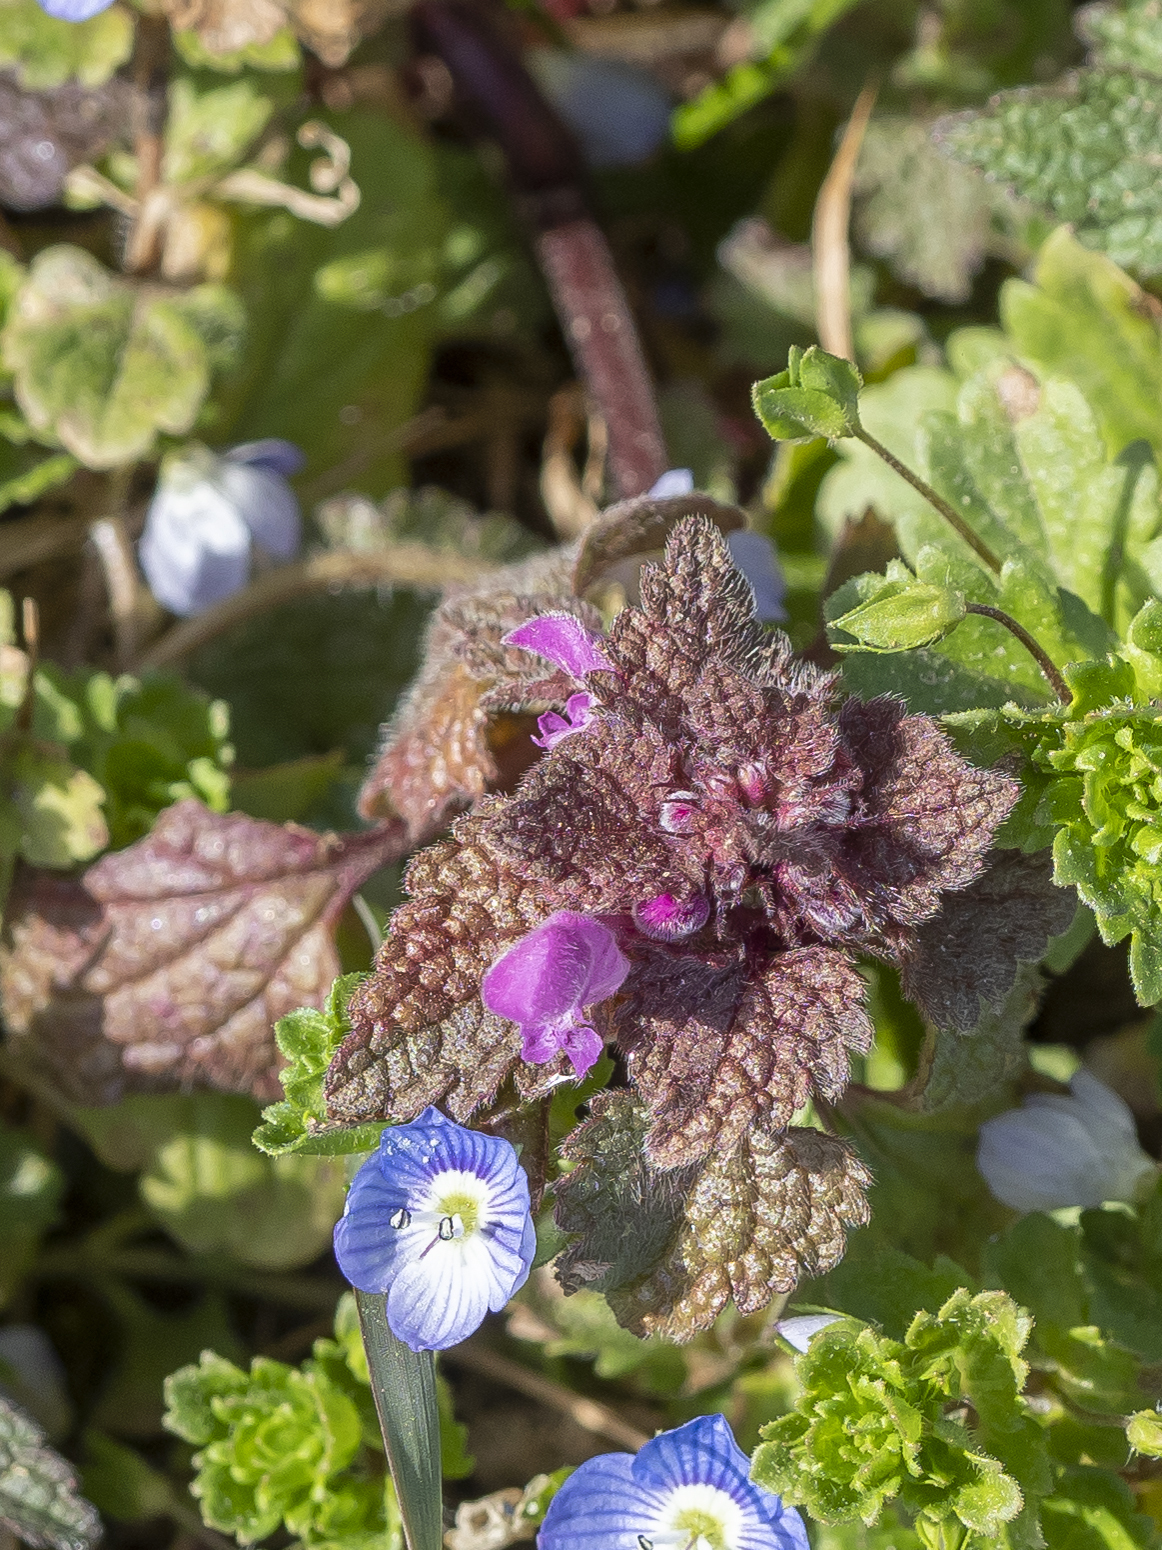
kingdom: Plantae
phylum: Tracheophyta
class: Magnoliopsida
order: Lamiales
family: Lamiaceae
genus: Lamium
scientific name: Lamium purpureum
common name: Red dead-nettle
